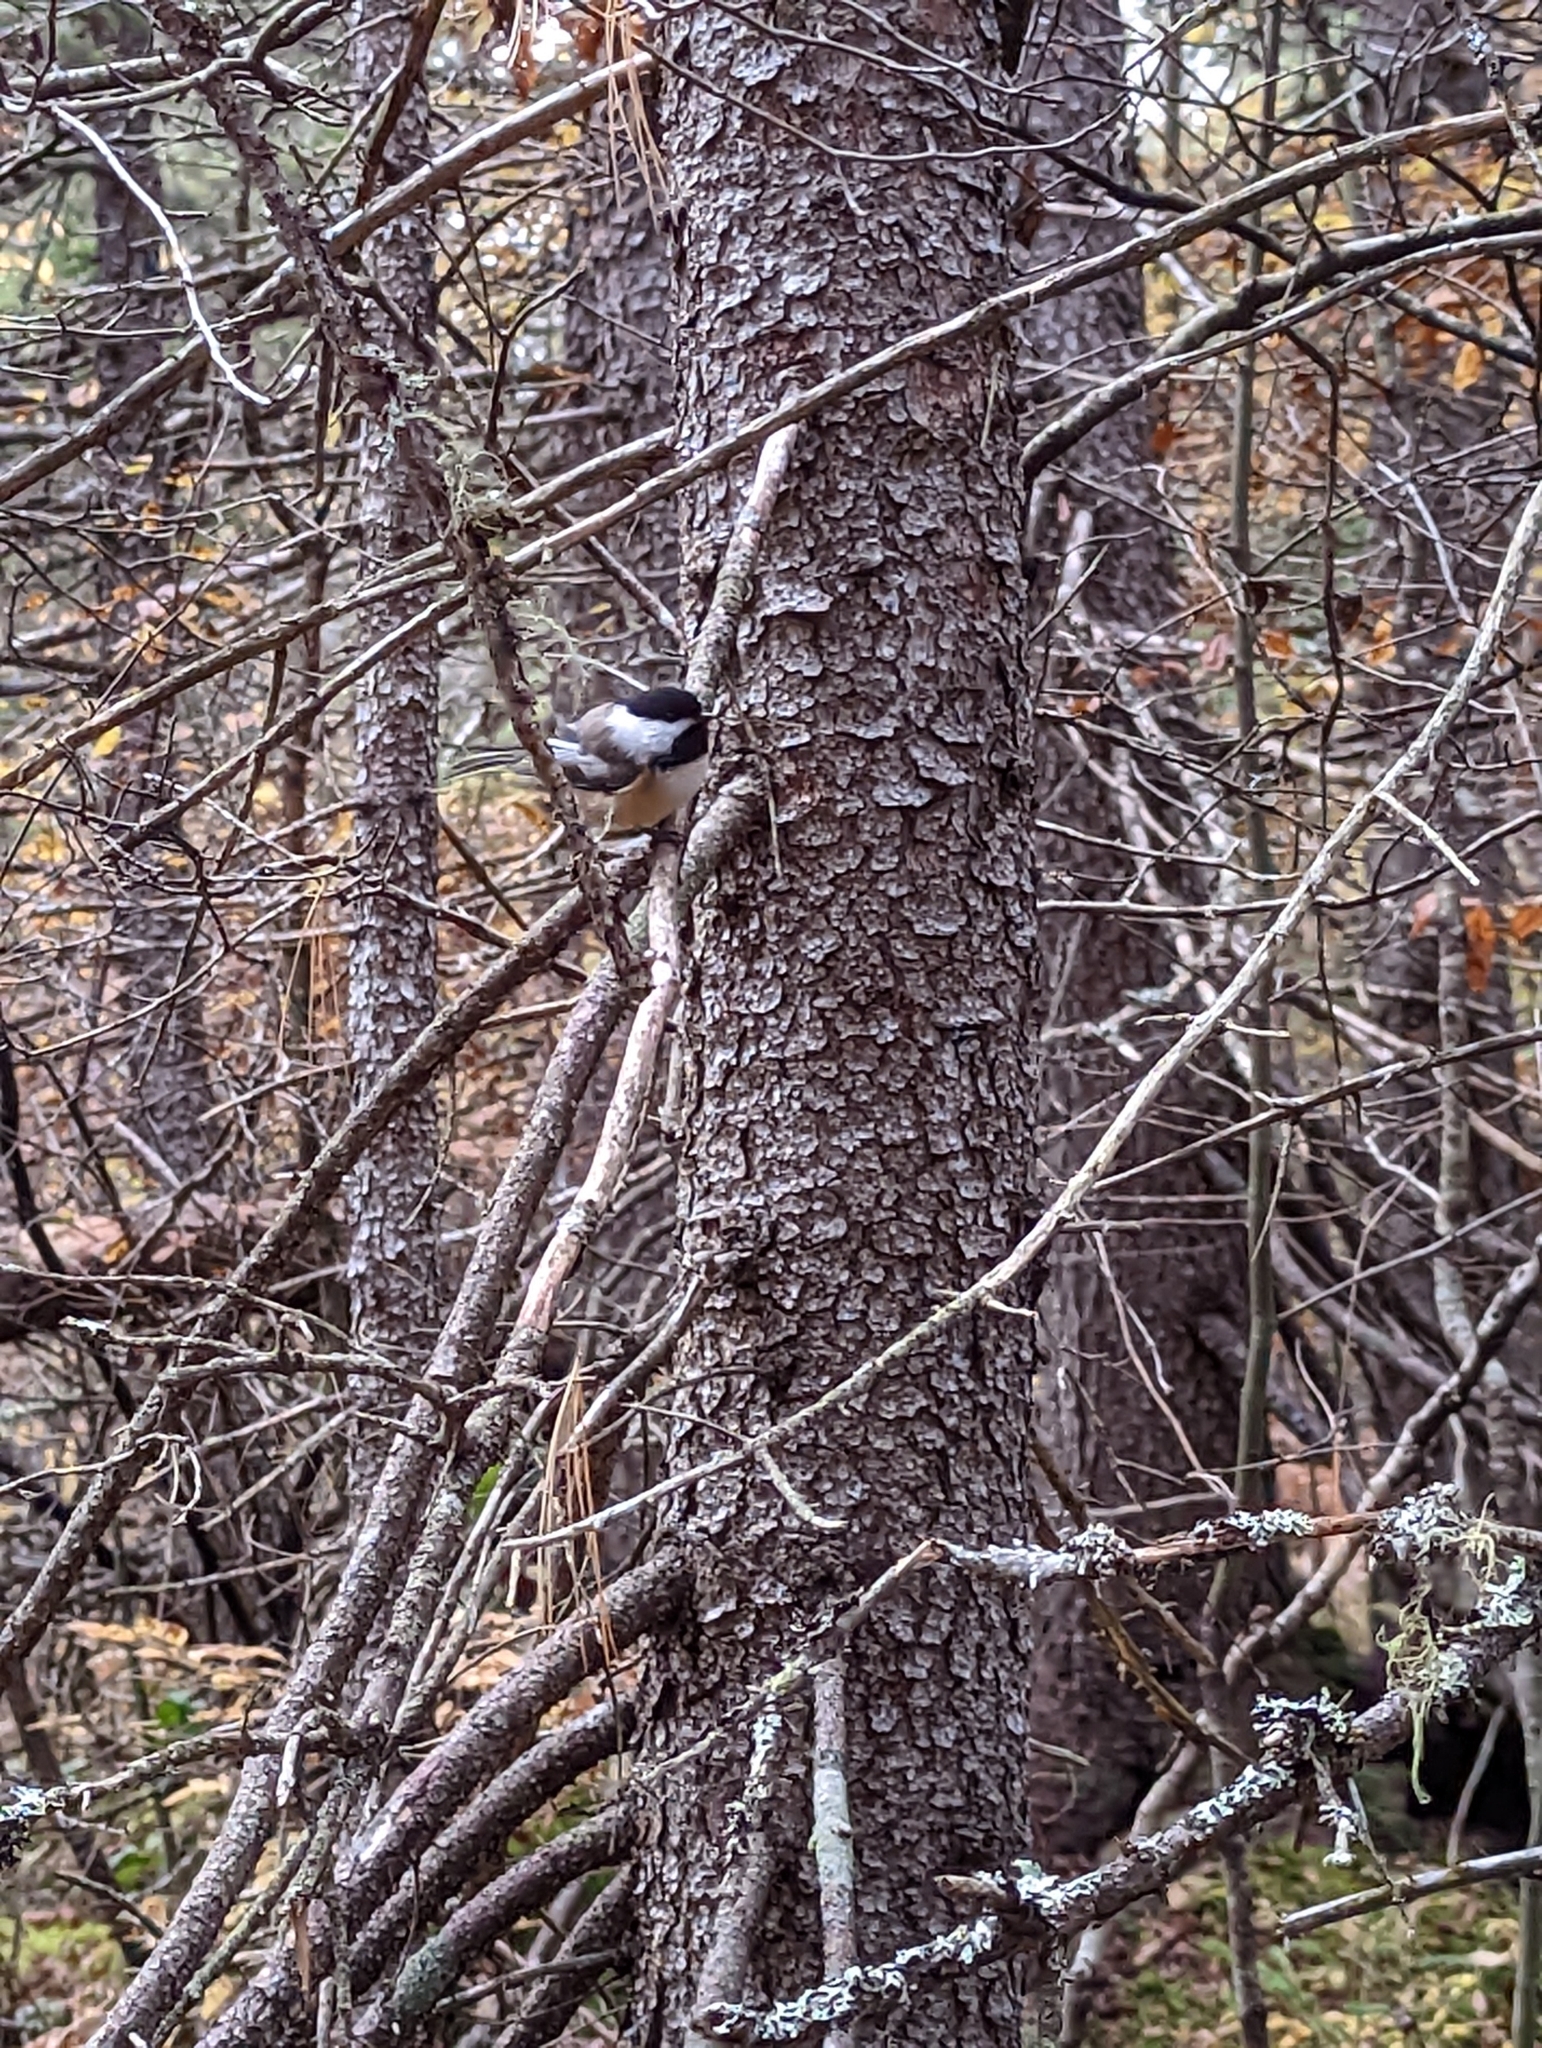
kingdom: Animalia
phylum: Chordata
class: Aves
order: Passeriformes
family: Paridae
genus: Poecile
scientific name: Poecile atricapillus
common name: Black-capped chickadee
